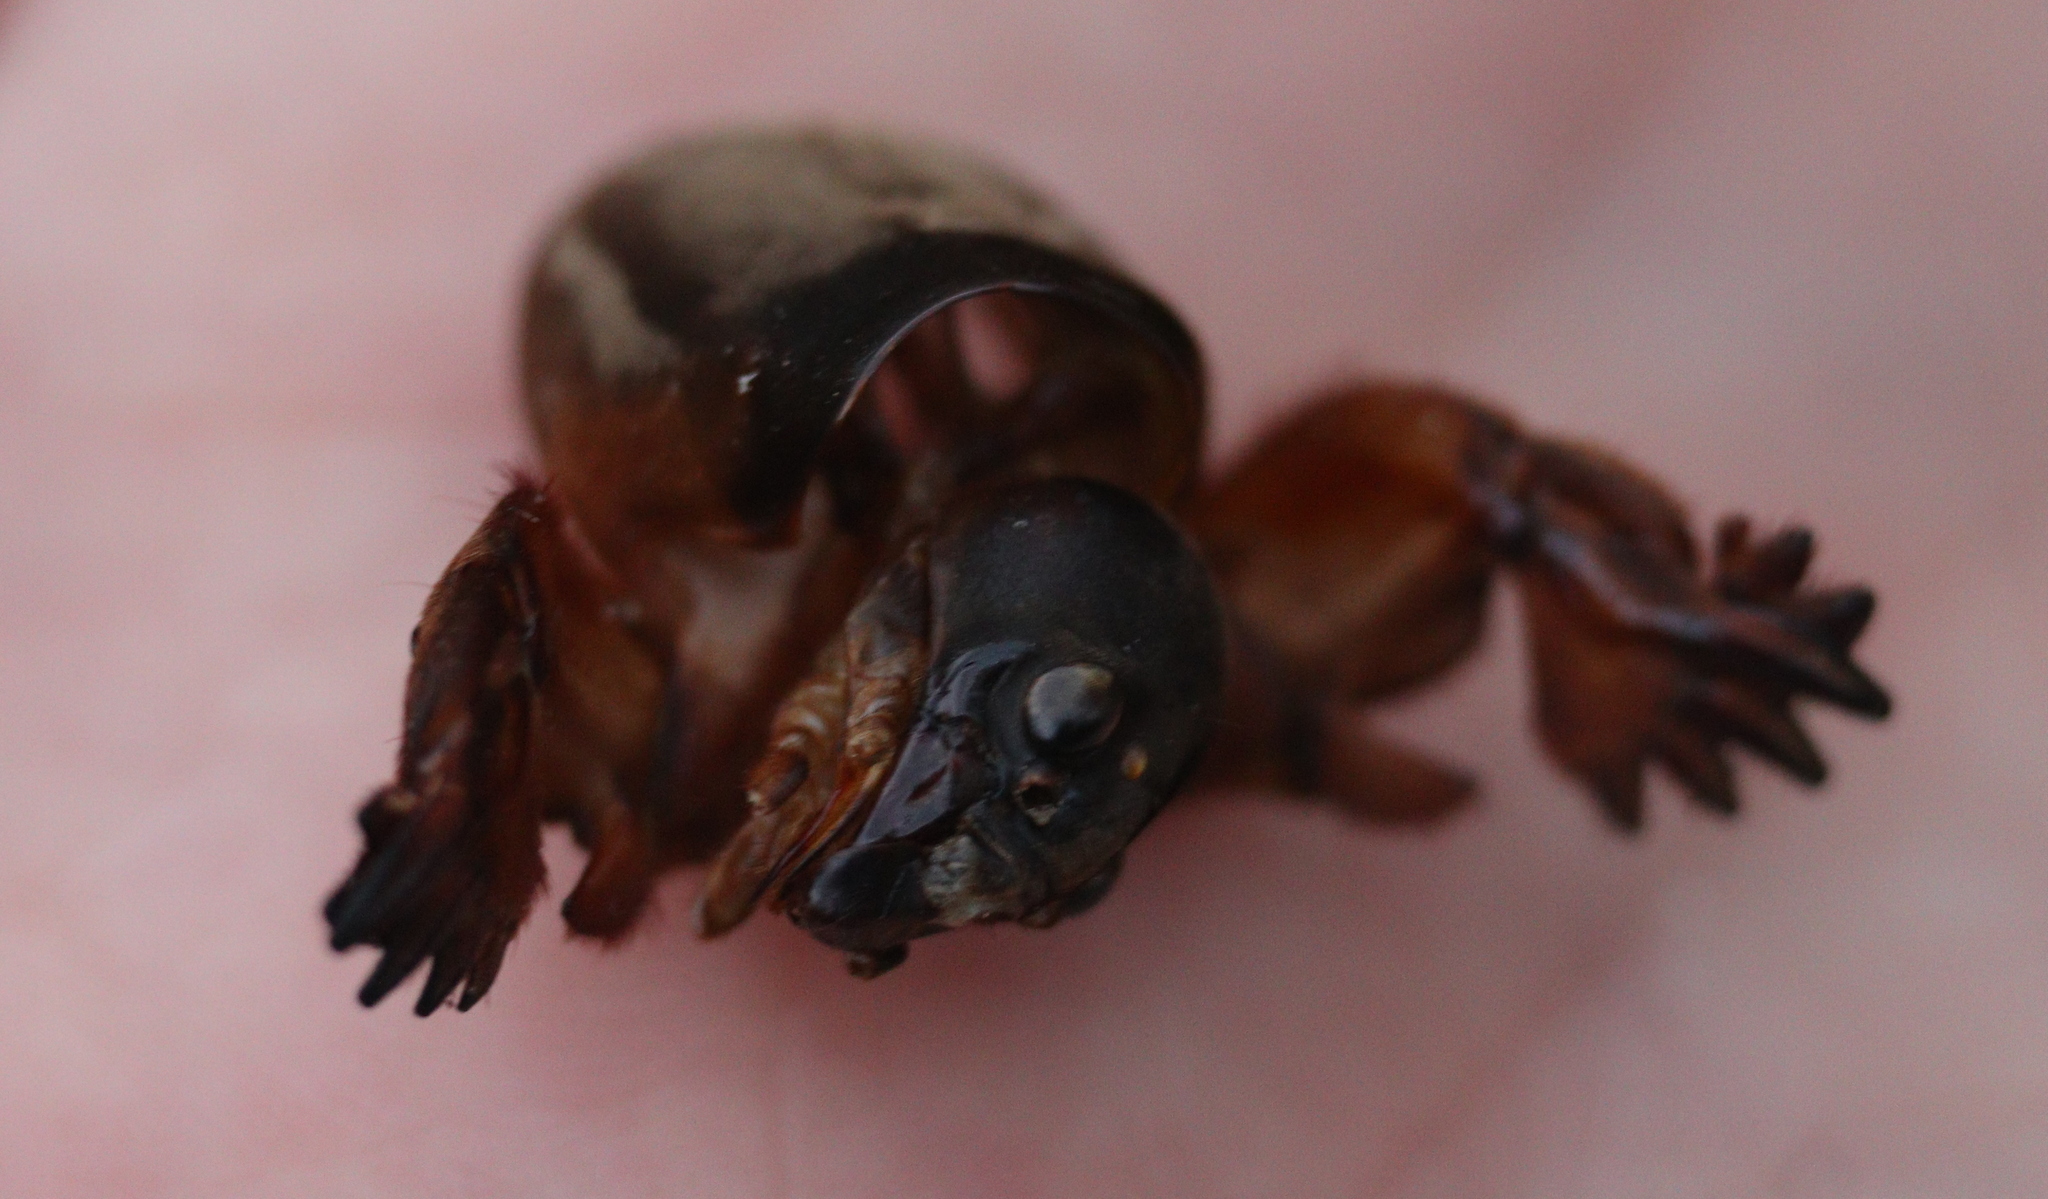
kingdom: Animalia
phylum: Arthropoda
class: Insecta
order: Orthoptera
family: Gryllotalpidae
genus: Gryllotalpa
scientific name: Gryllotalpa gryllotalpa
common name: European mole cricket
